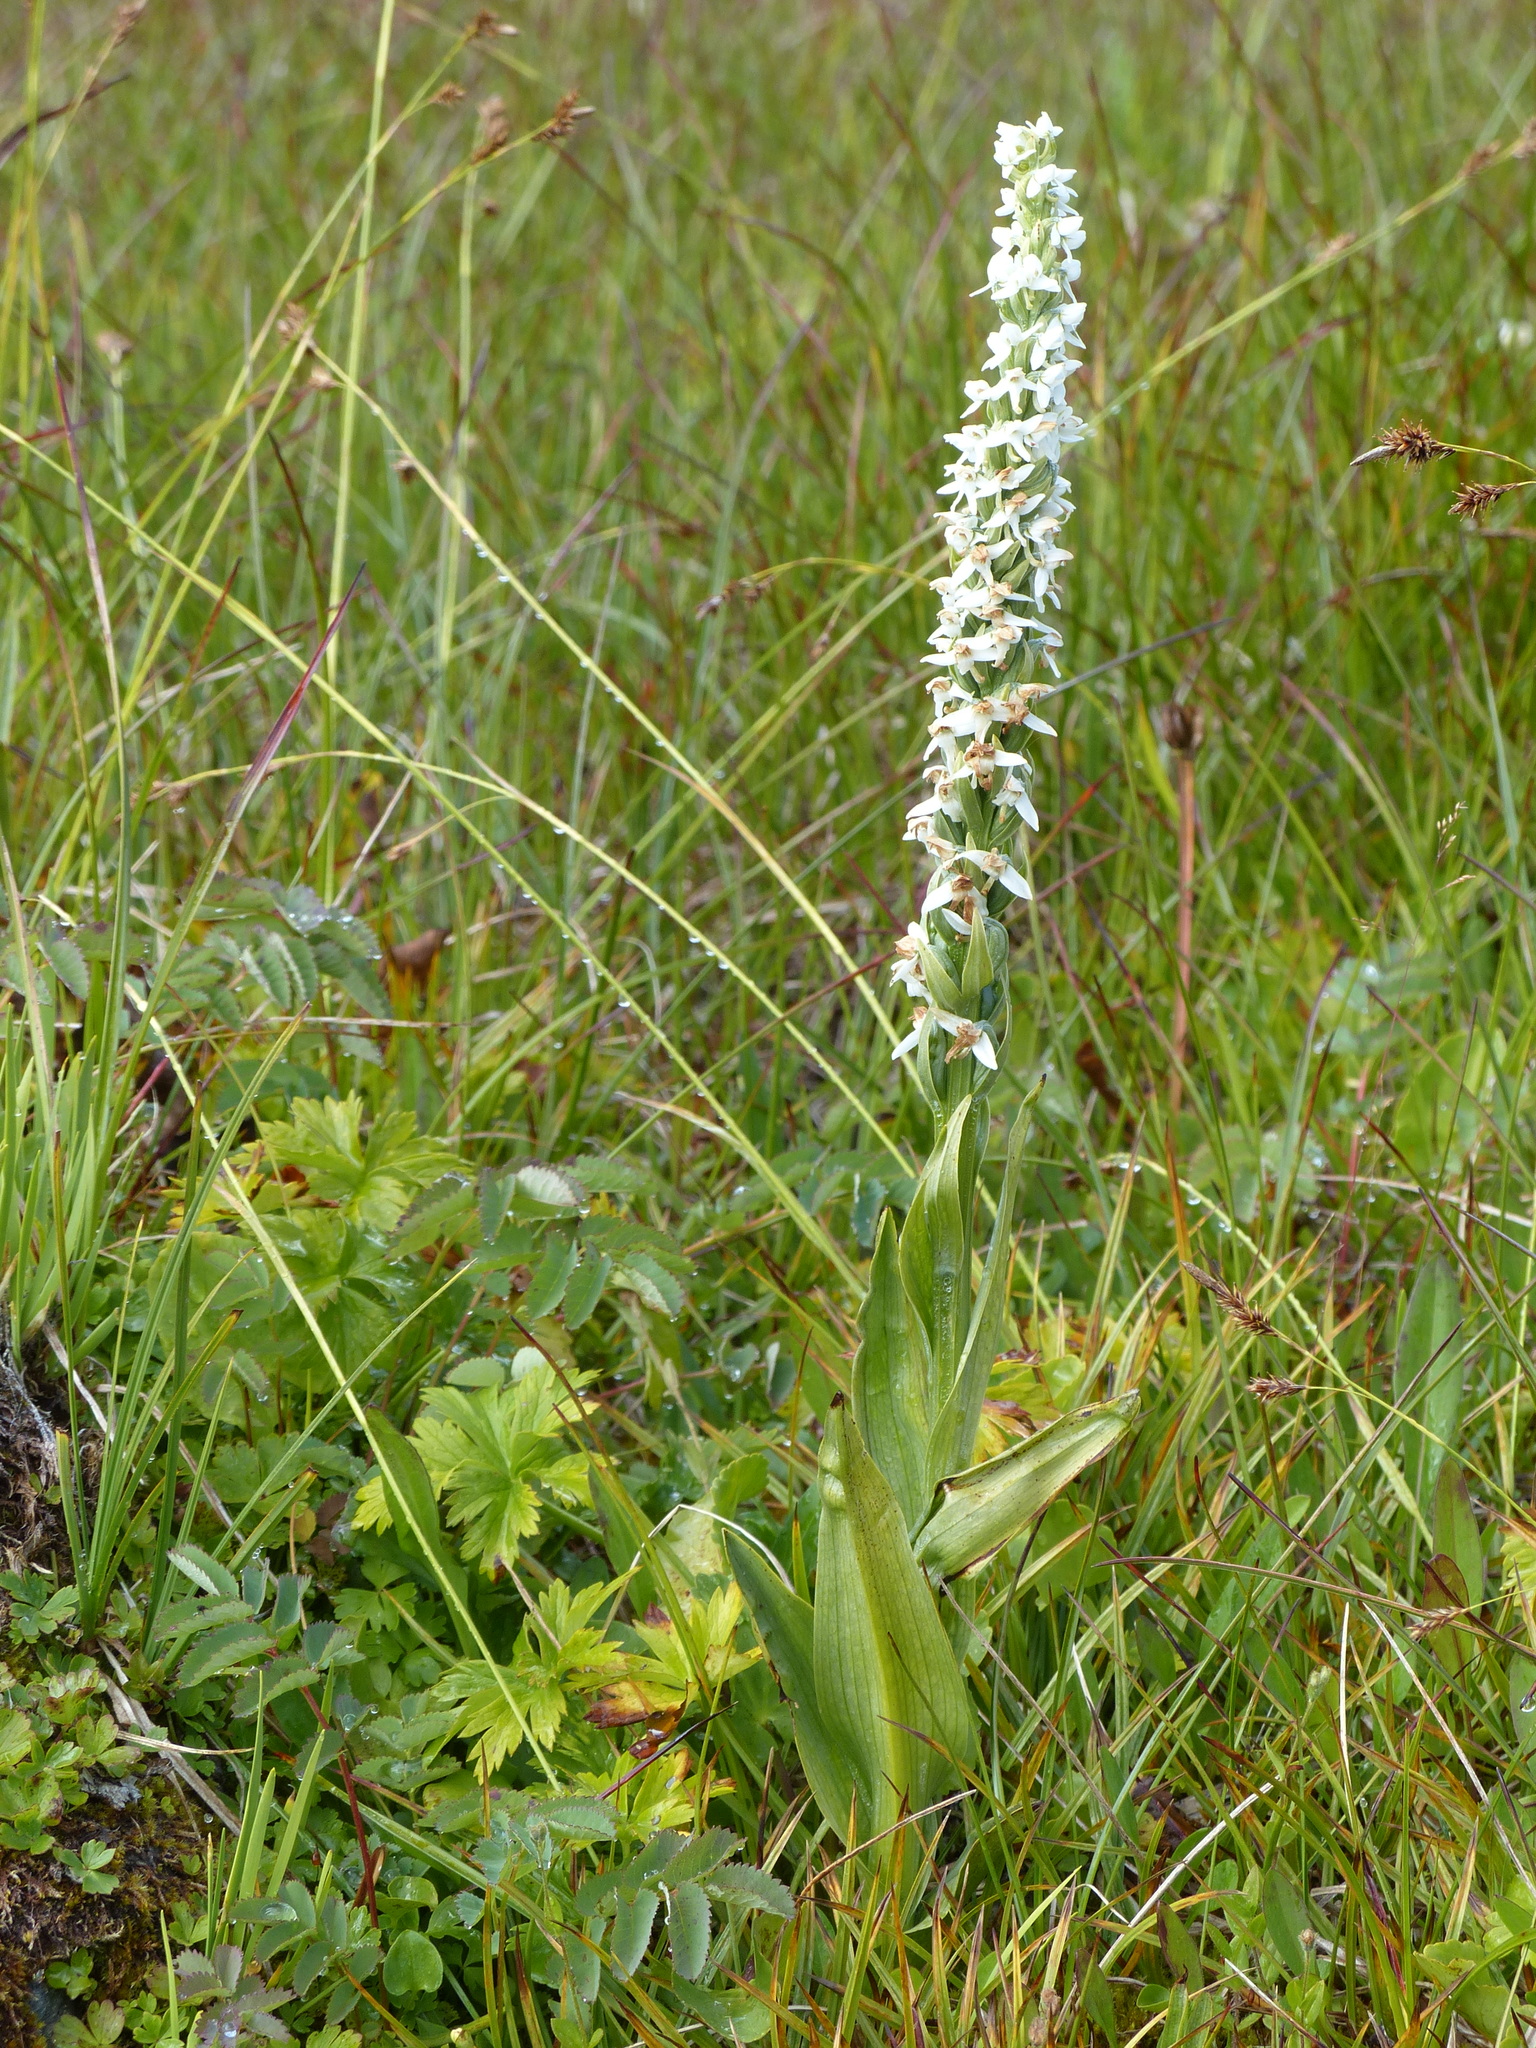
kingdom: Plantae
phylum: Tracheophyta
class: Liliopsida
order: Asparagales
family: Orchidaceae
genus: Platanthera
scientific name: Platanthera dilatata
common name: Bog candles
